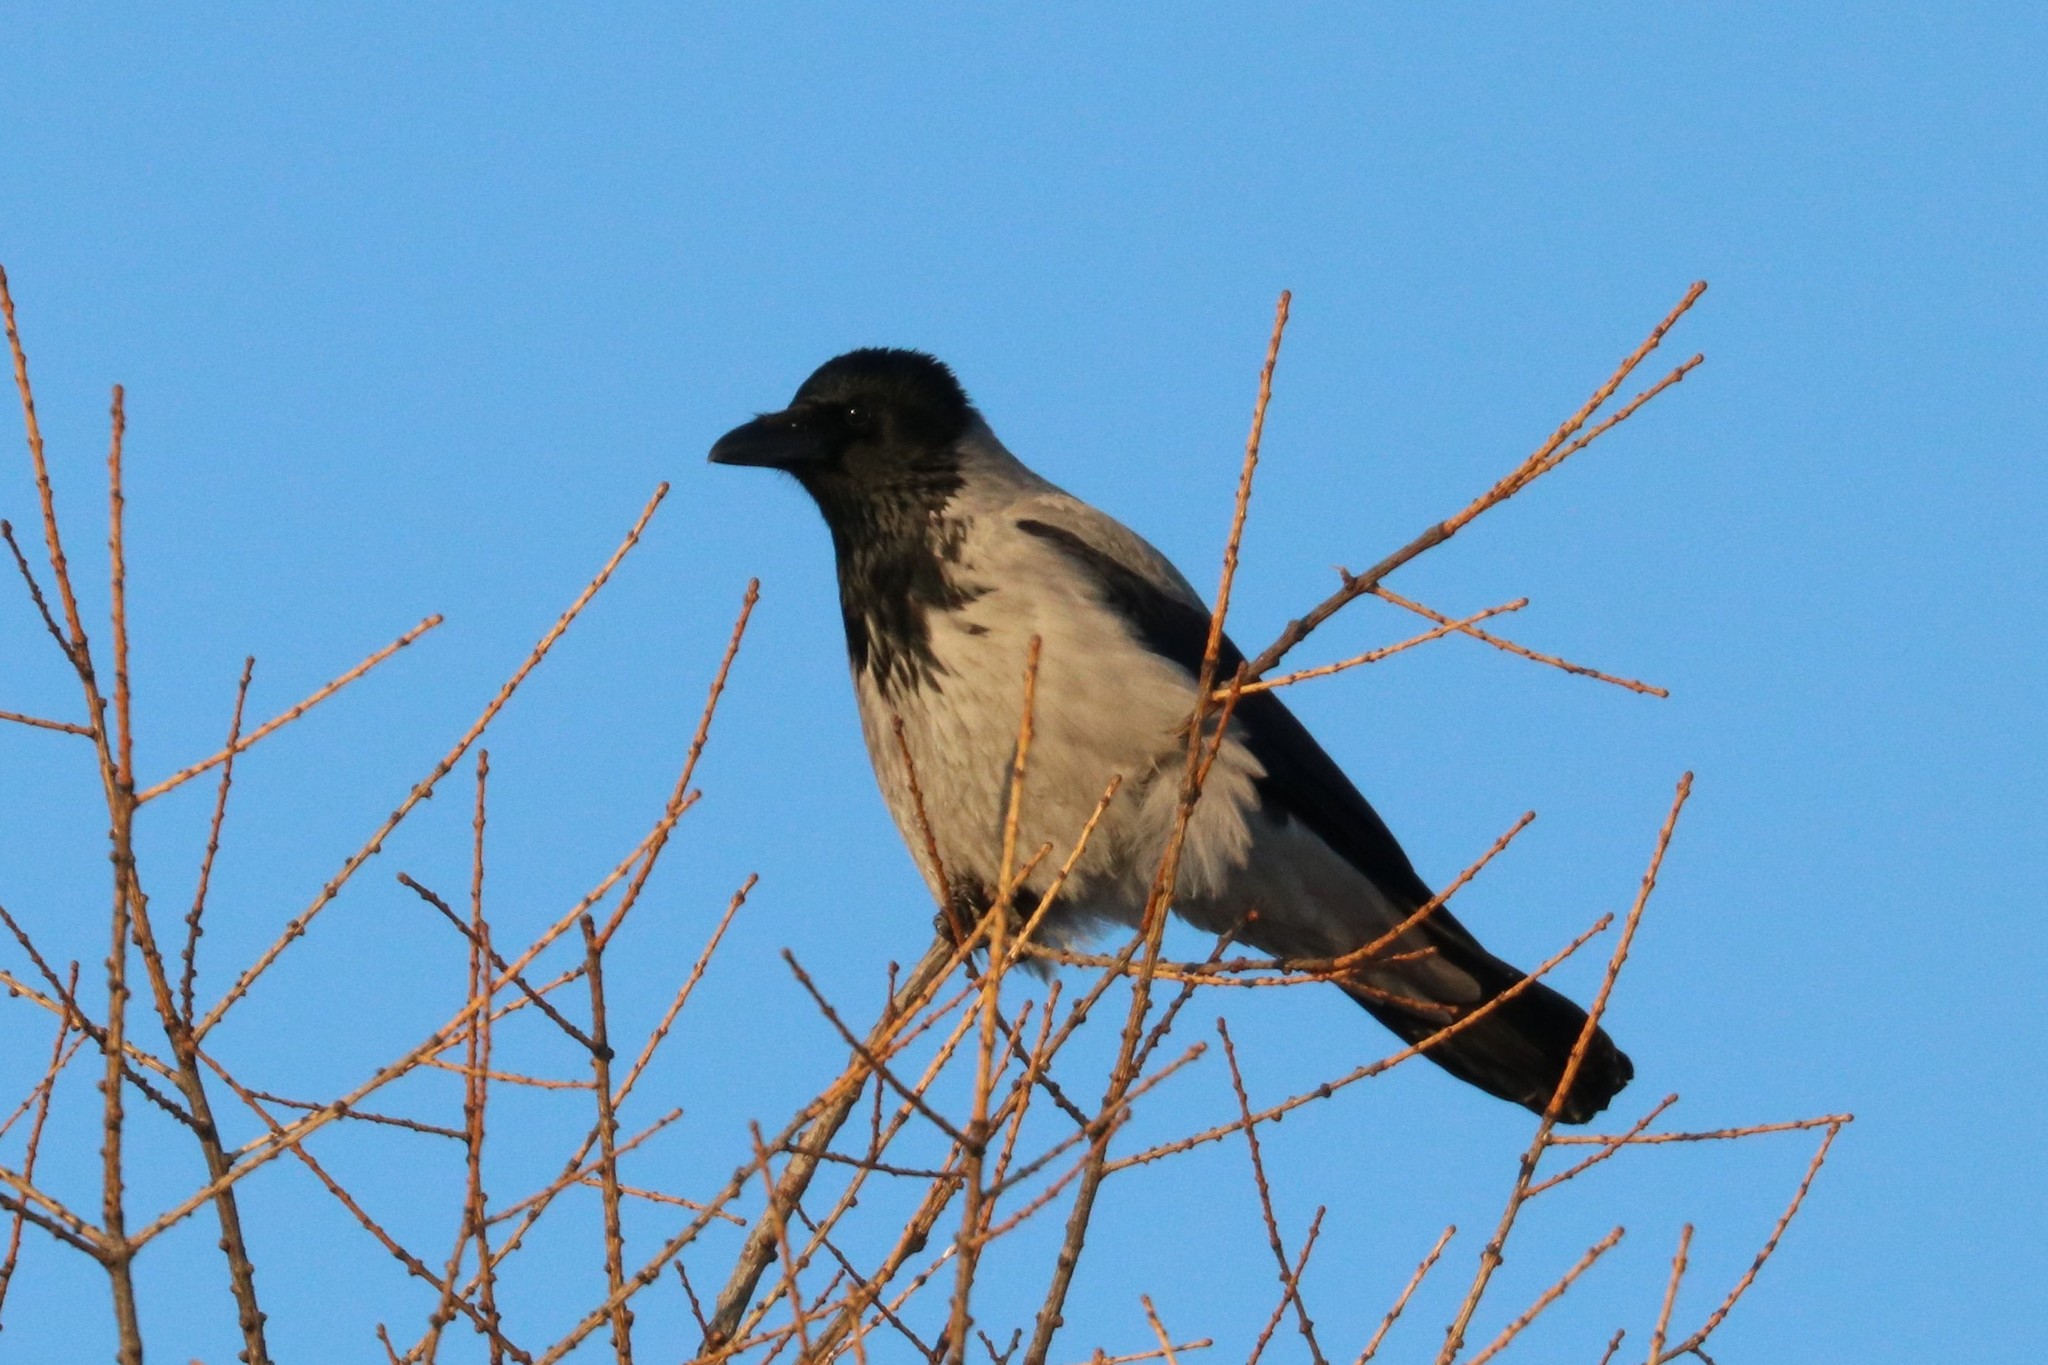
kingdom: Animalia
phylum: Chordata
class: Aves
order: Passeriformes
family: Corvidae
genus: Corvus
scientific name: Corvus cornix
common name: Hooded crow
